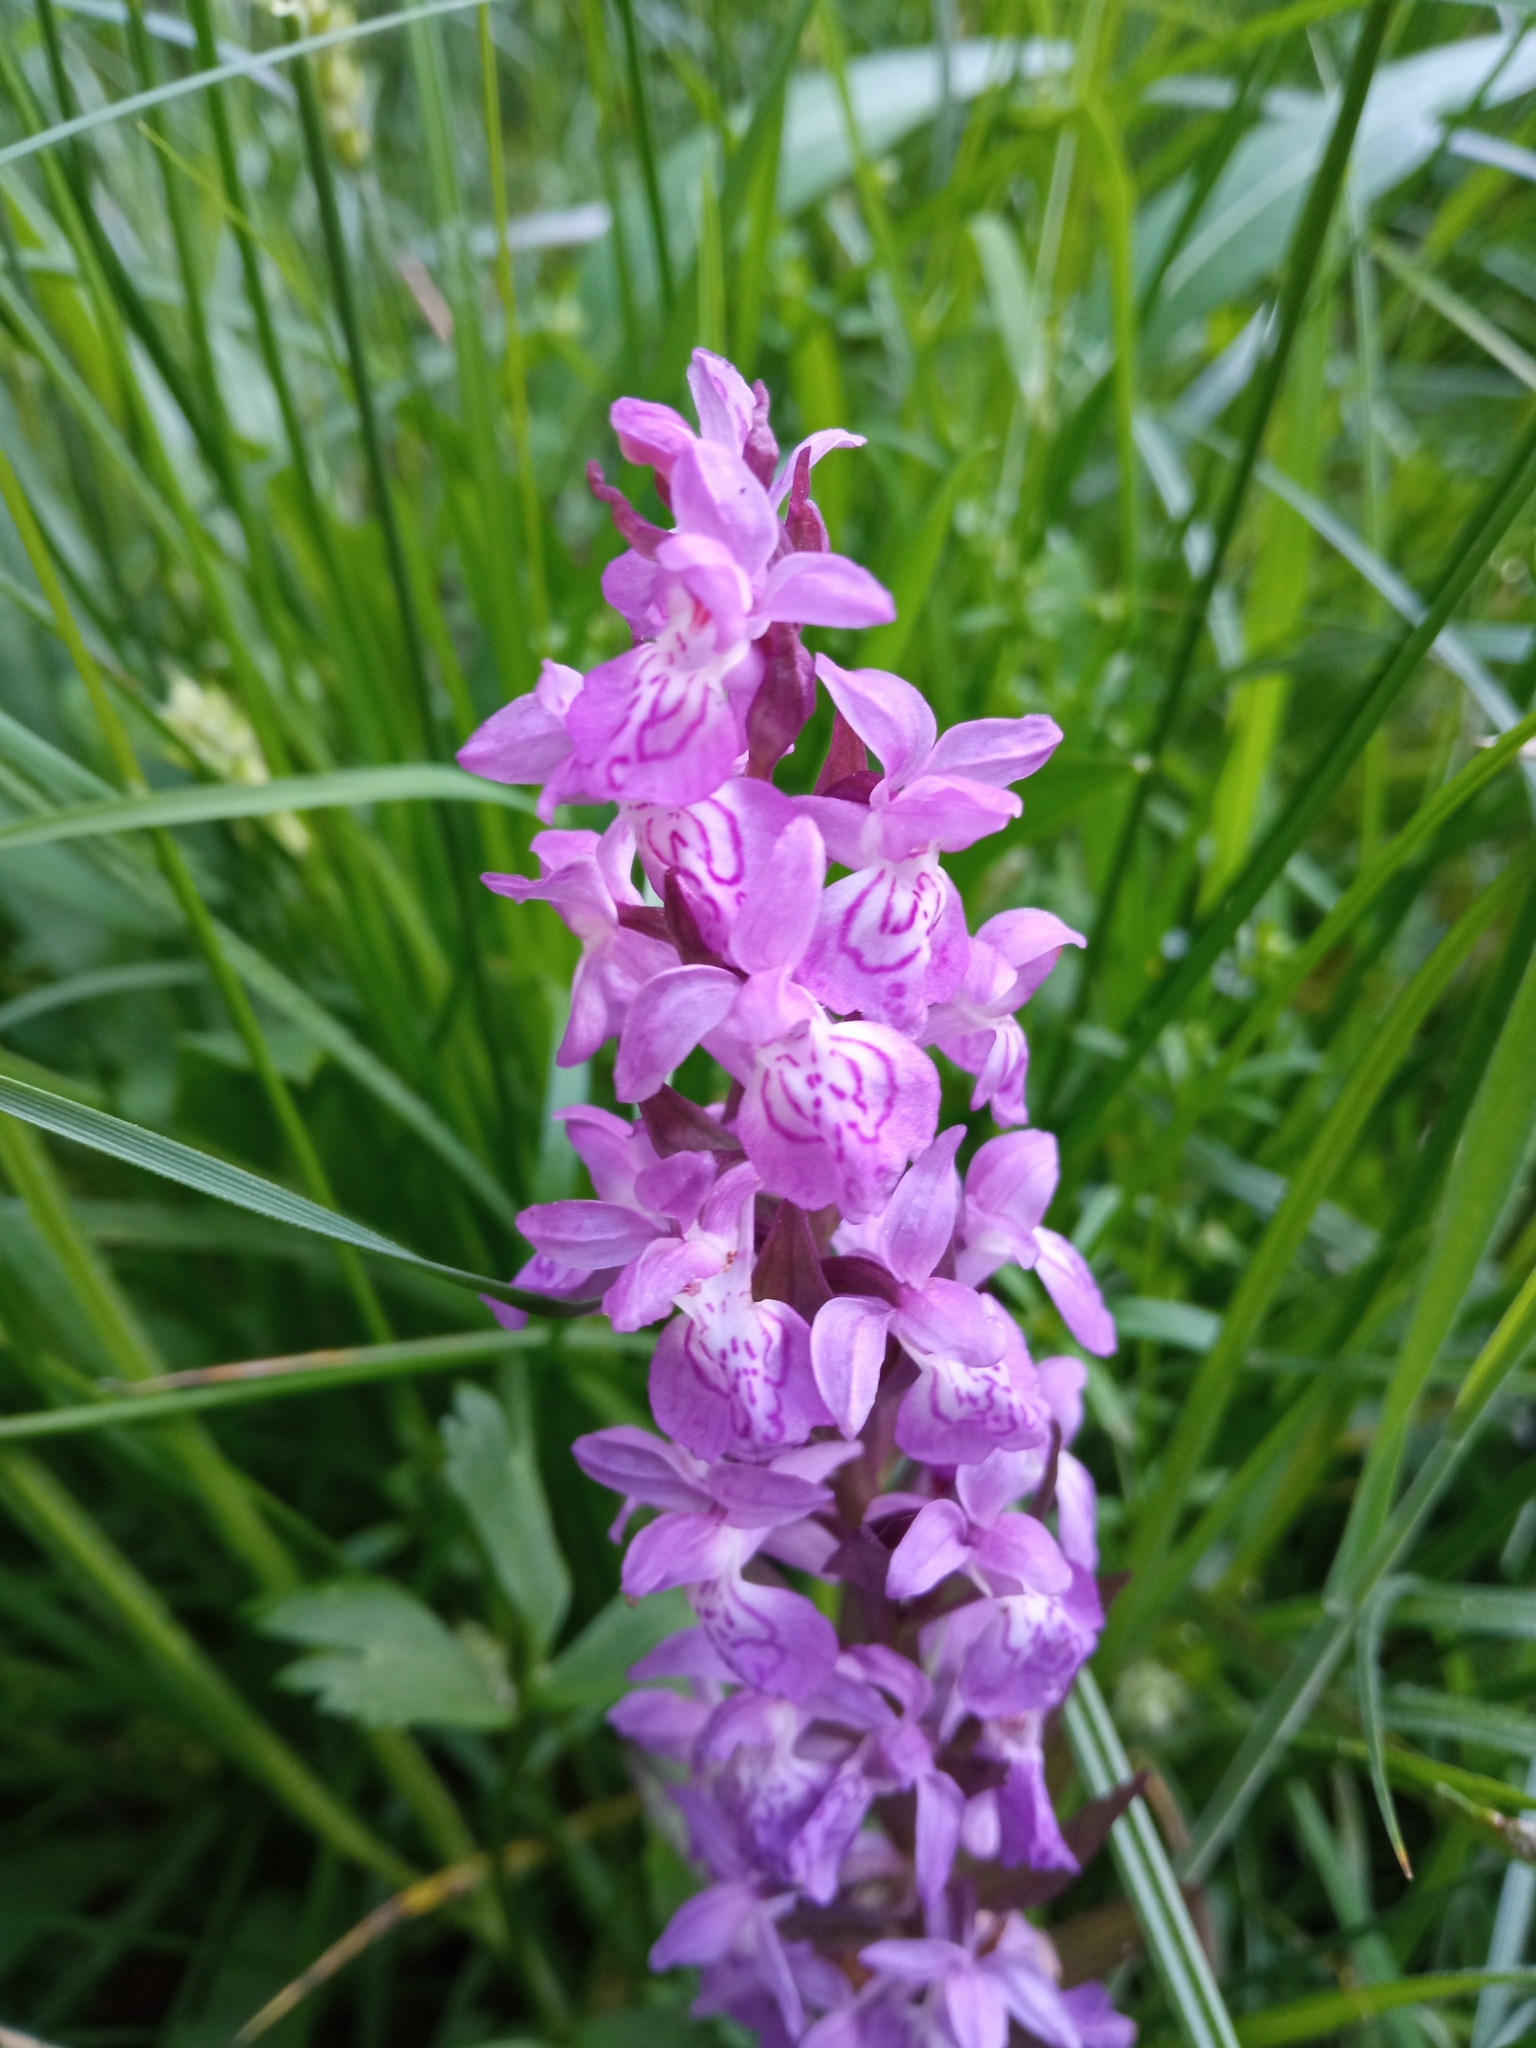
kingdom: Plantae
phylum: Tracheophyta
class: Liliopsida
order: Asparagales
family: Orchidaceae
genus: Dactylorhiza
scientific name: Dactylorhiza majalis
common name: Marsh orchid
